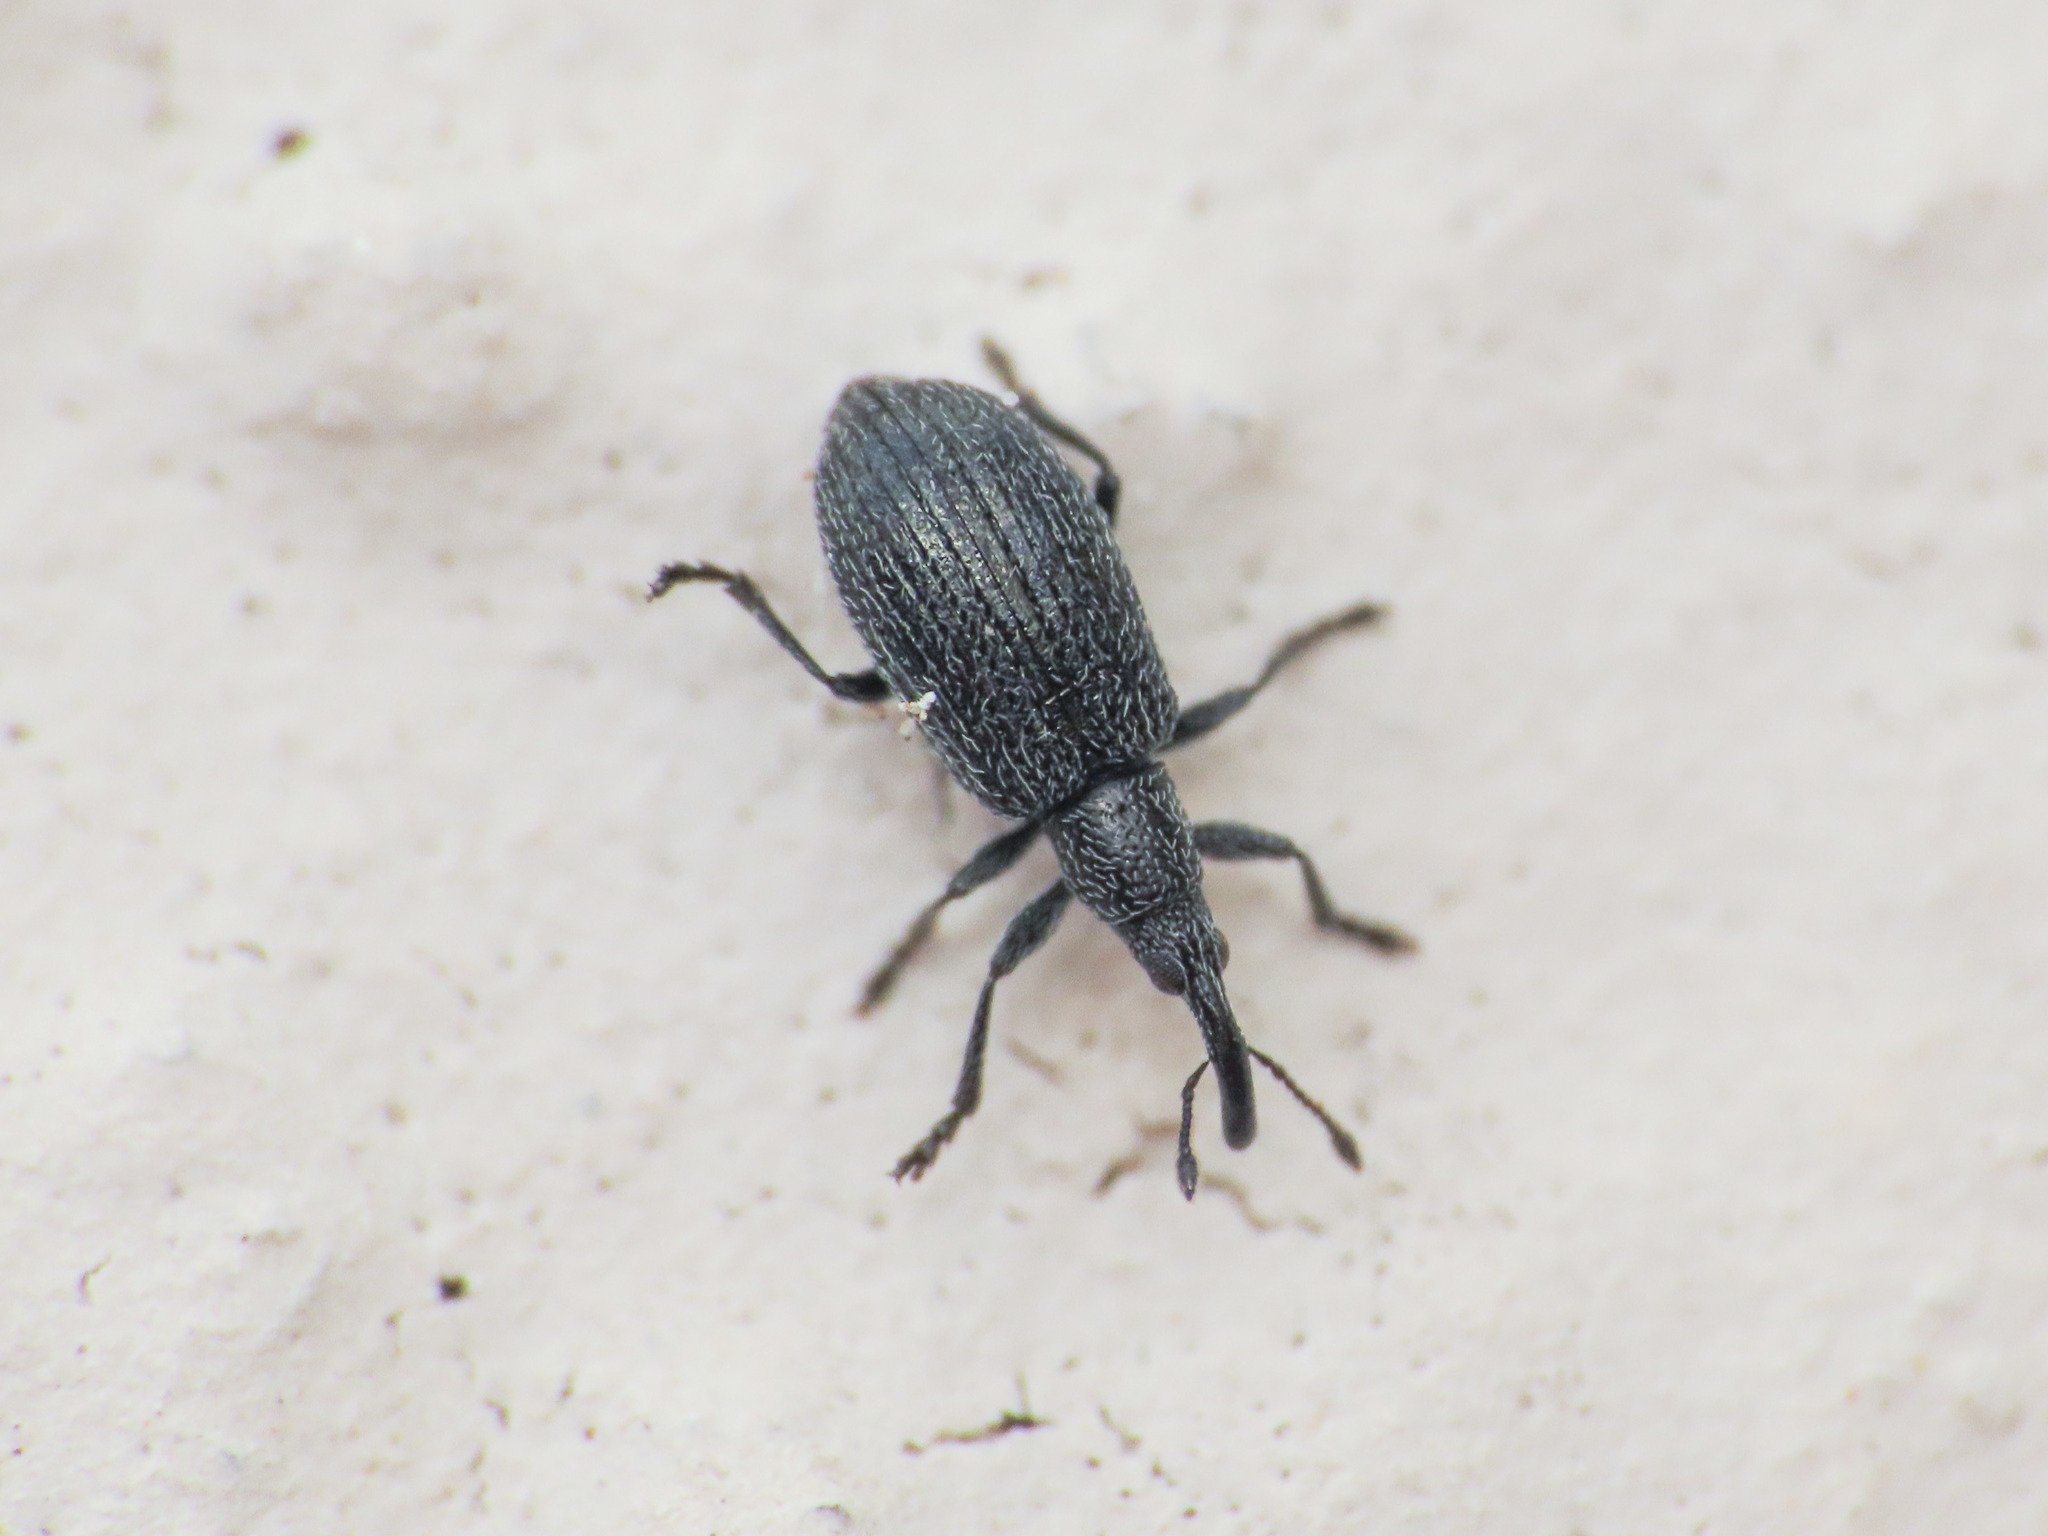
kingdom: Animalia
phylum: Arthropoda
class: Insecta
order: Coleoptera
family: Brentidae
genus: Stenopterapion
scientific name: Stenopterapion tenue
